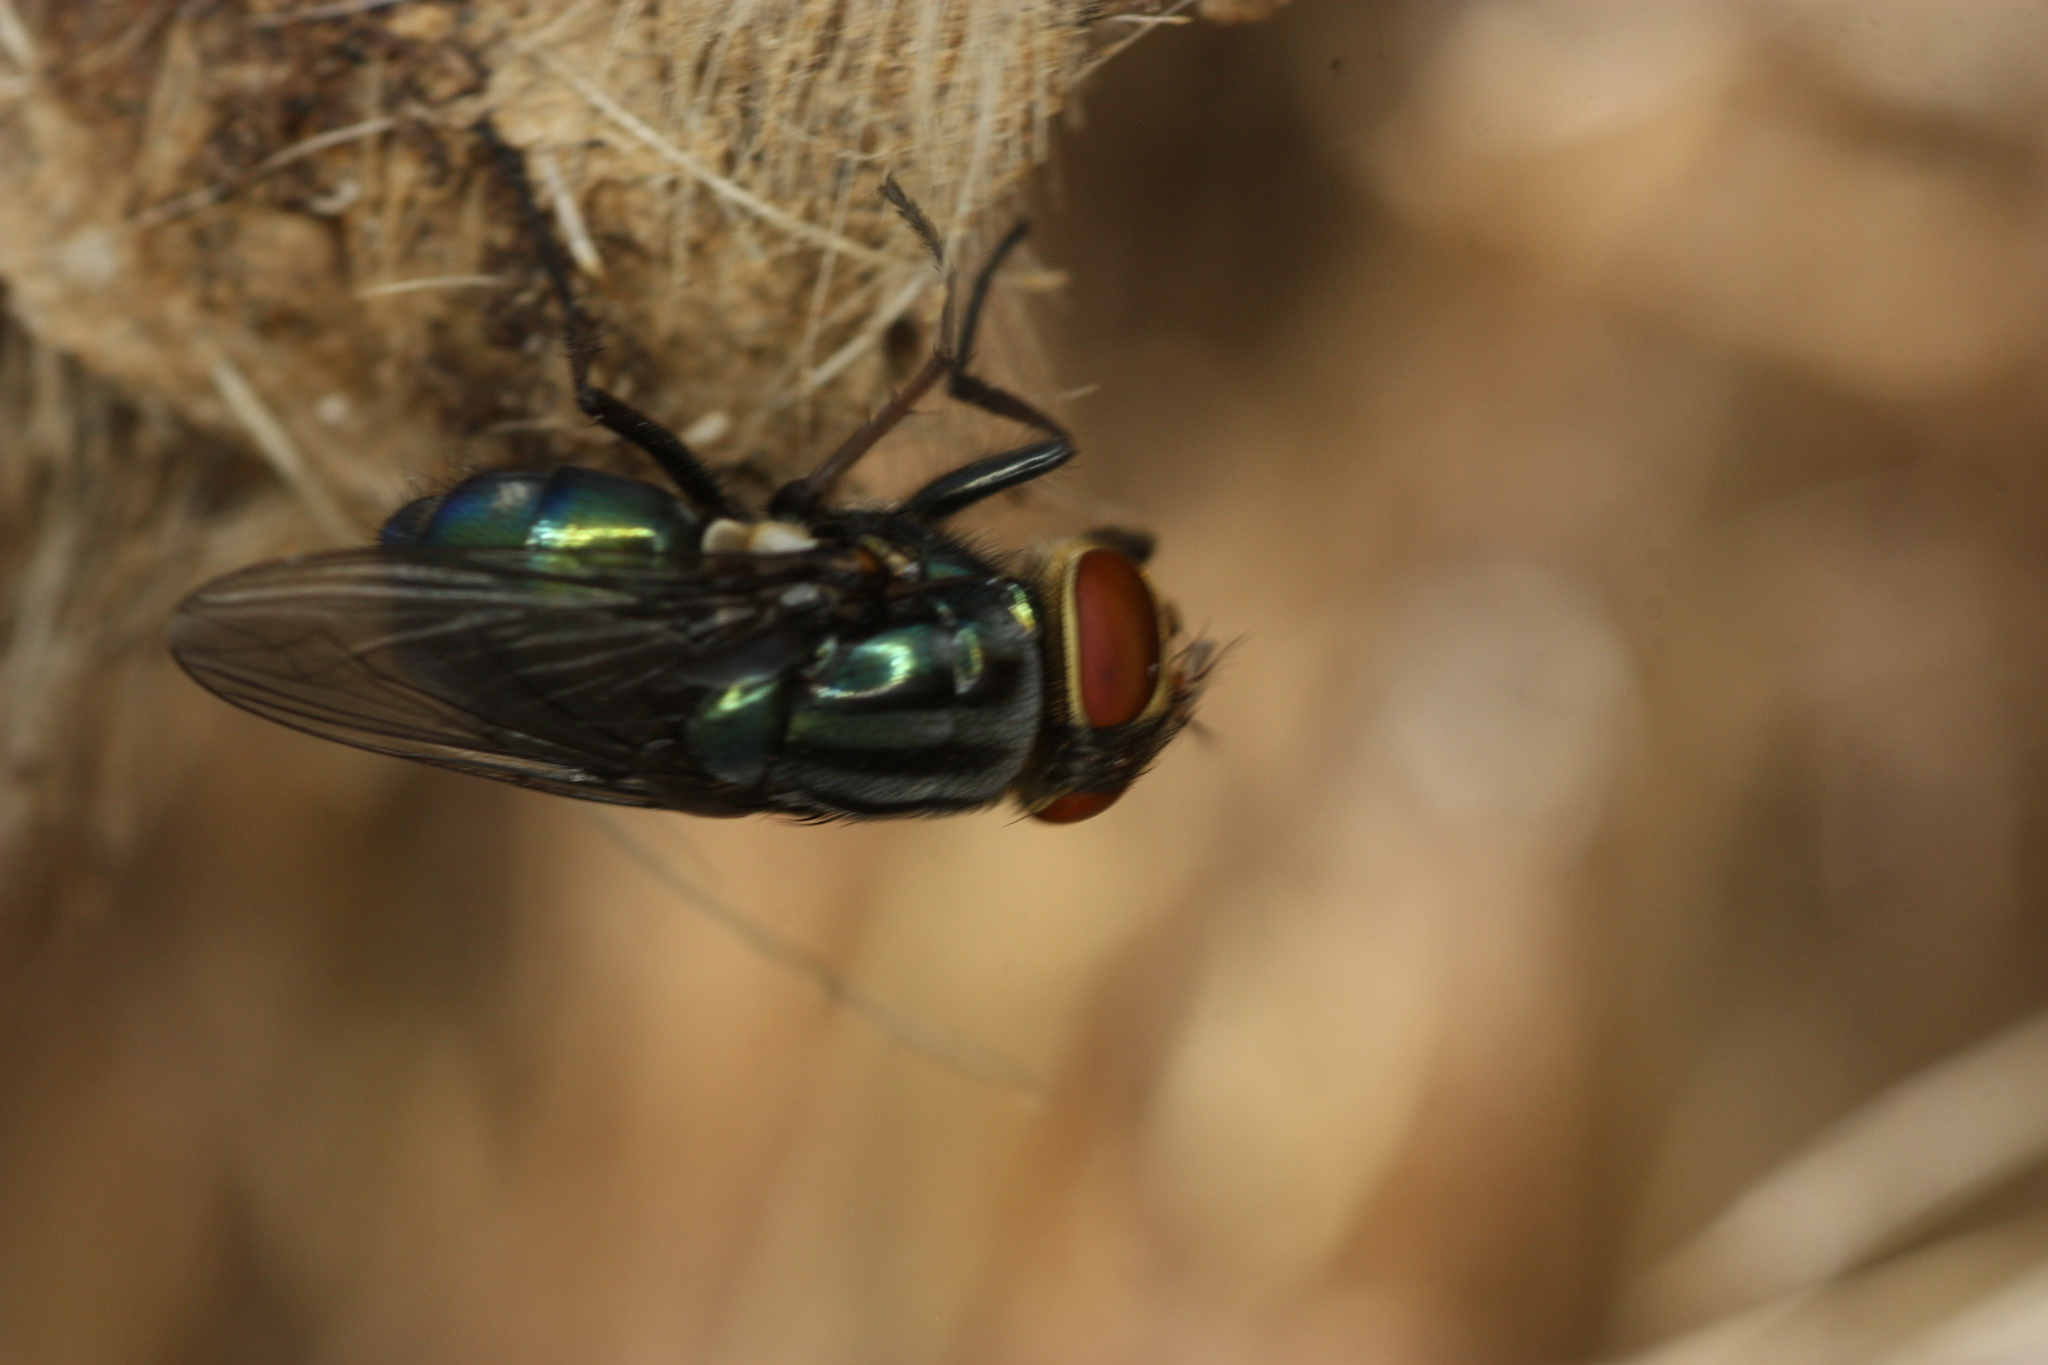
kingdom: Animalia
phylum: Arthropoda
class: Insecta
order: Diptera
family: Calliphoridae
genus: Cochliomyia
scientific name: Cochliomyia macellaria
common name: Secondary screwworm
